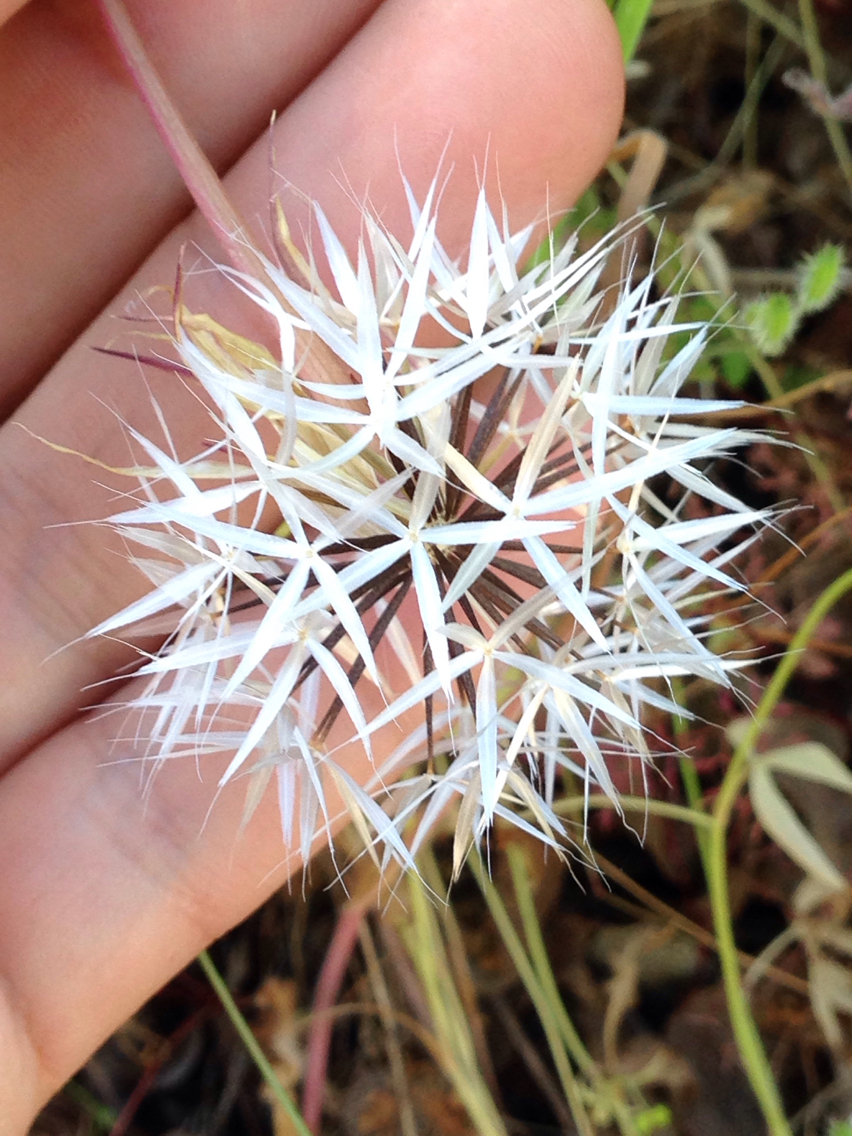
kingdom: Plantae
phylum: Tracheophyta
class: Magnoliopsida
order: Asterales
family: Asteraceae
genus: Microseris
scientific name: Microseris lindleyi
